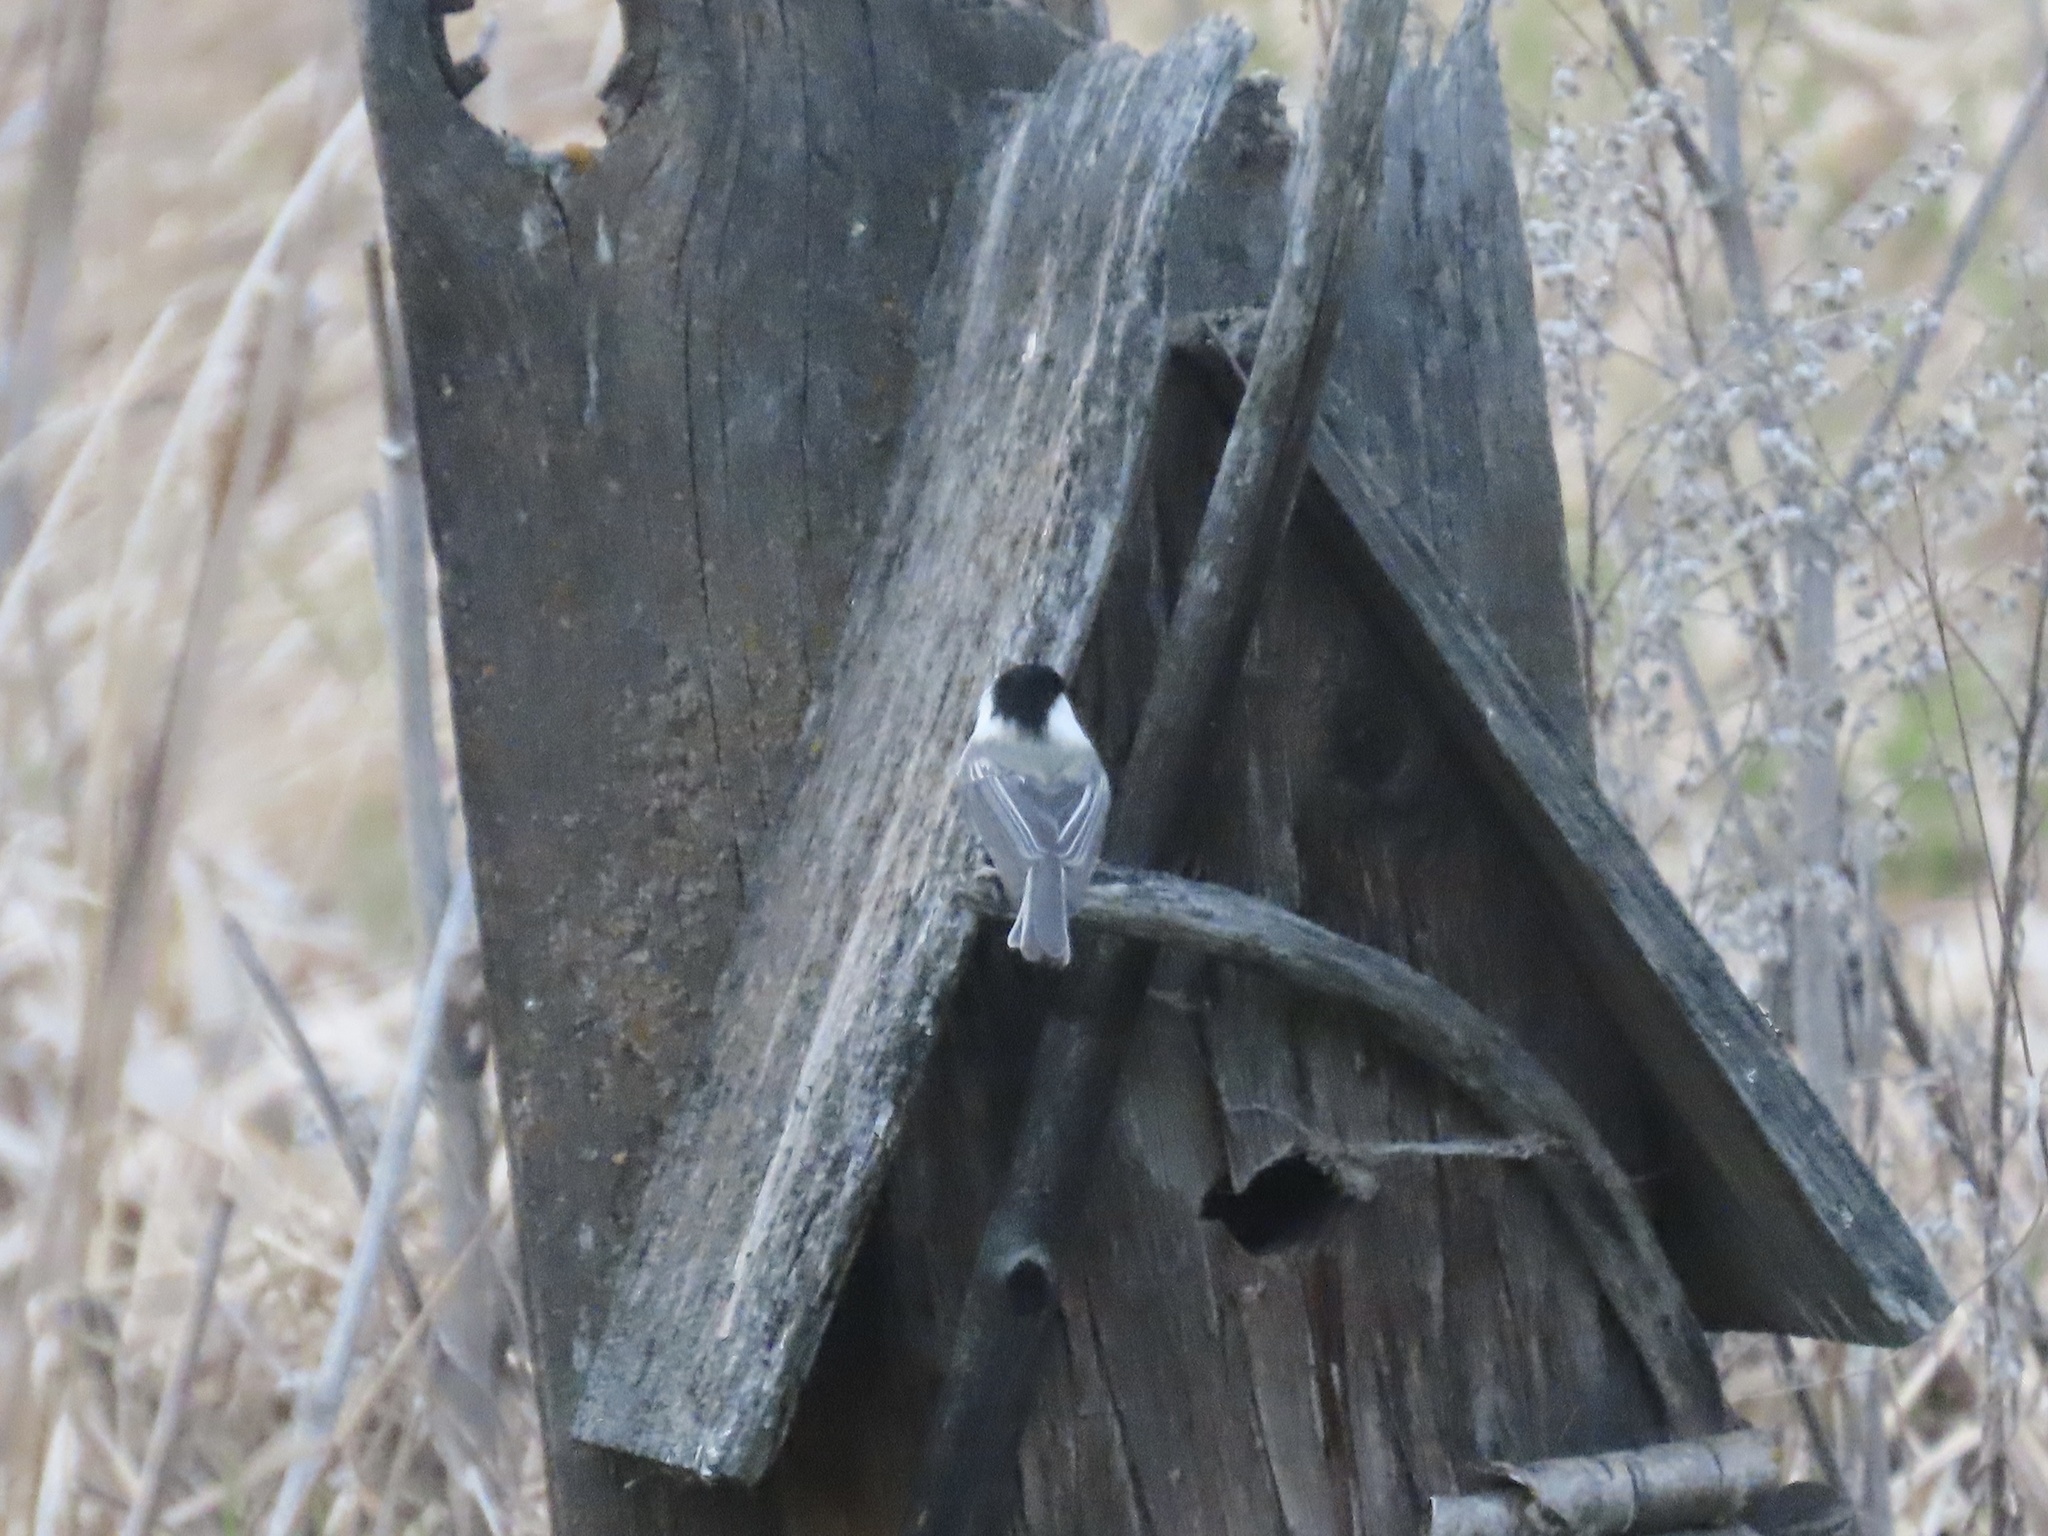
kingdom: Animalia
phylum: Chordata
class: Aves
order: Passeriformes
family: Paridae
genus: Poecile
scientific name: Poecile atricapillus
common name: Black-capped chickadee
